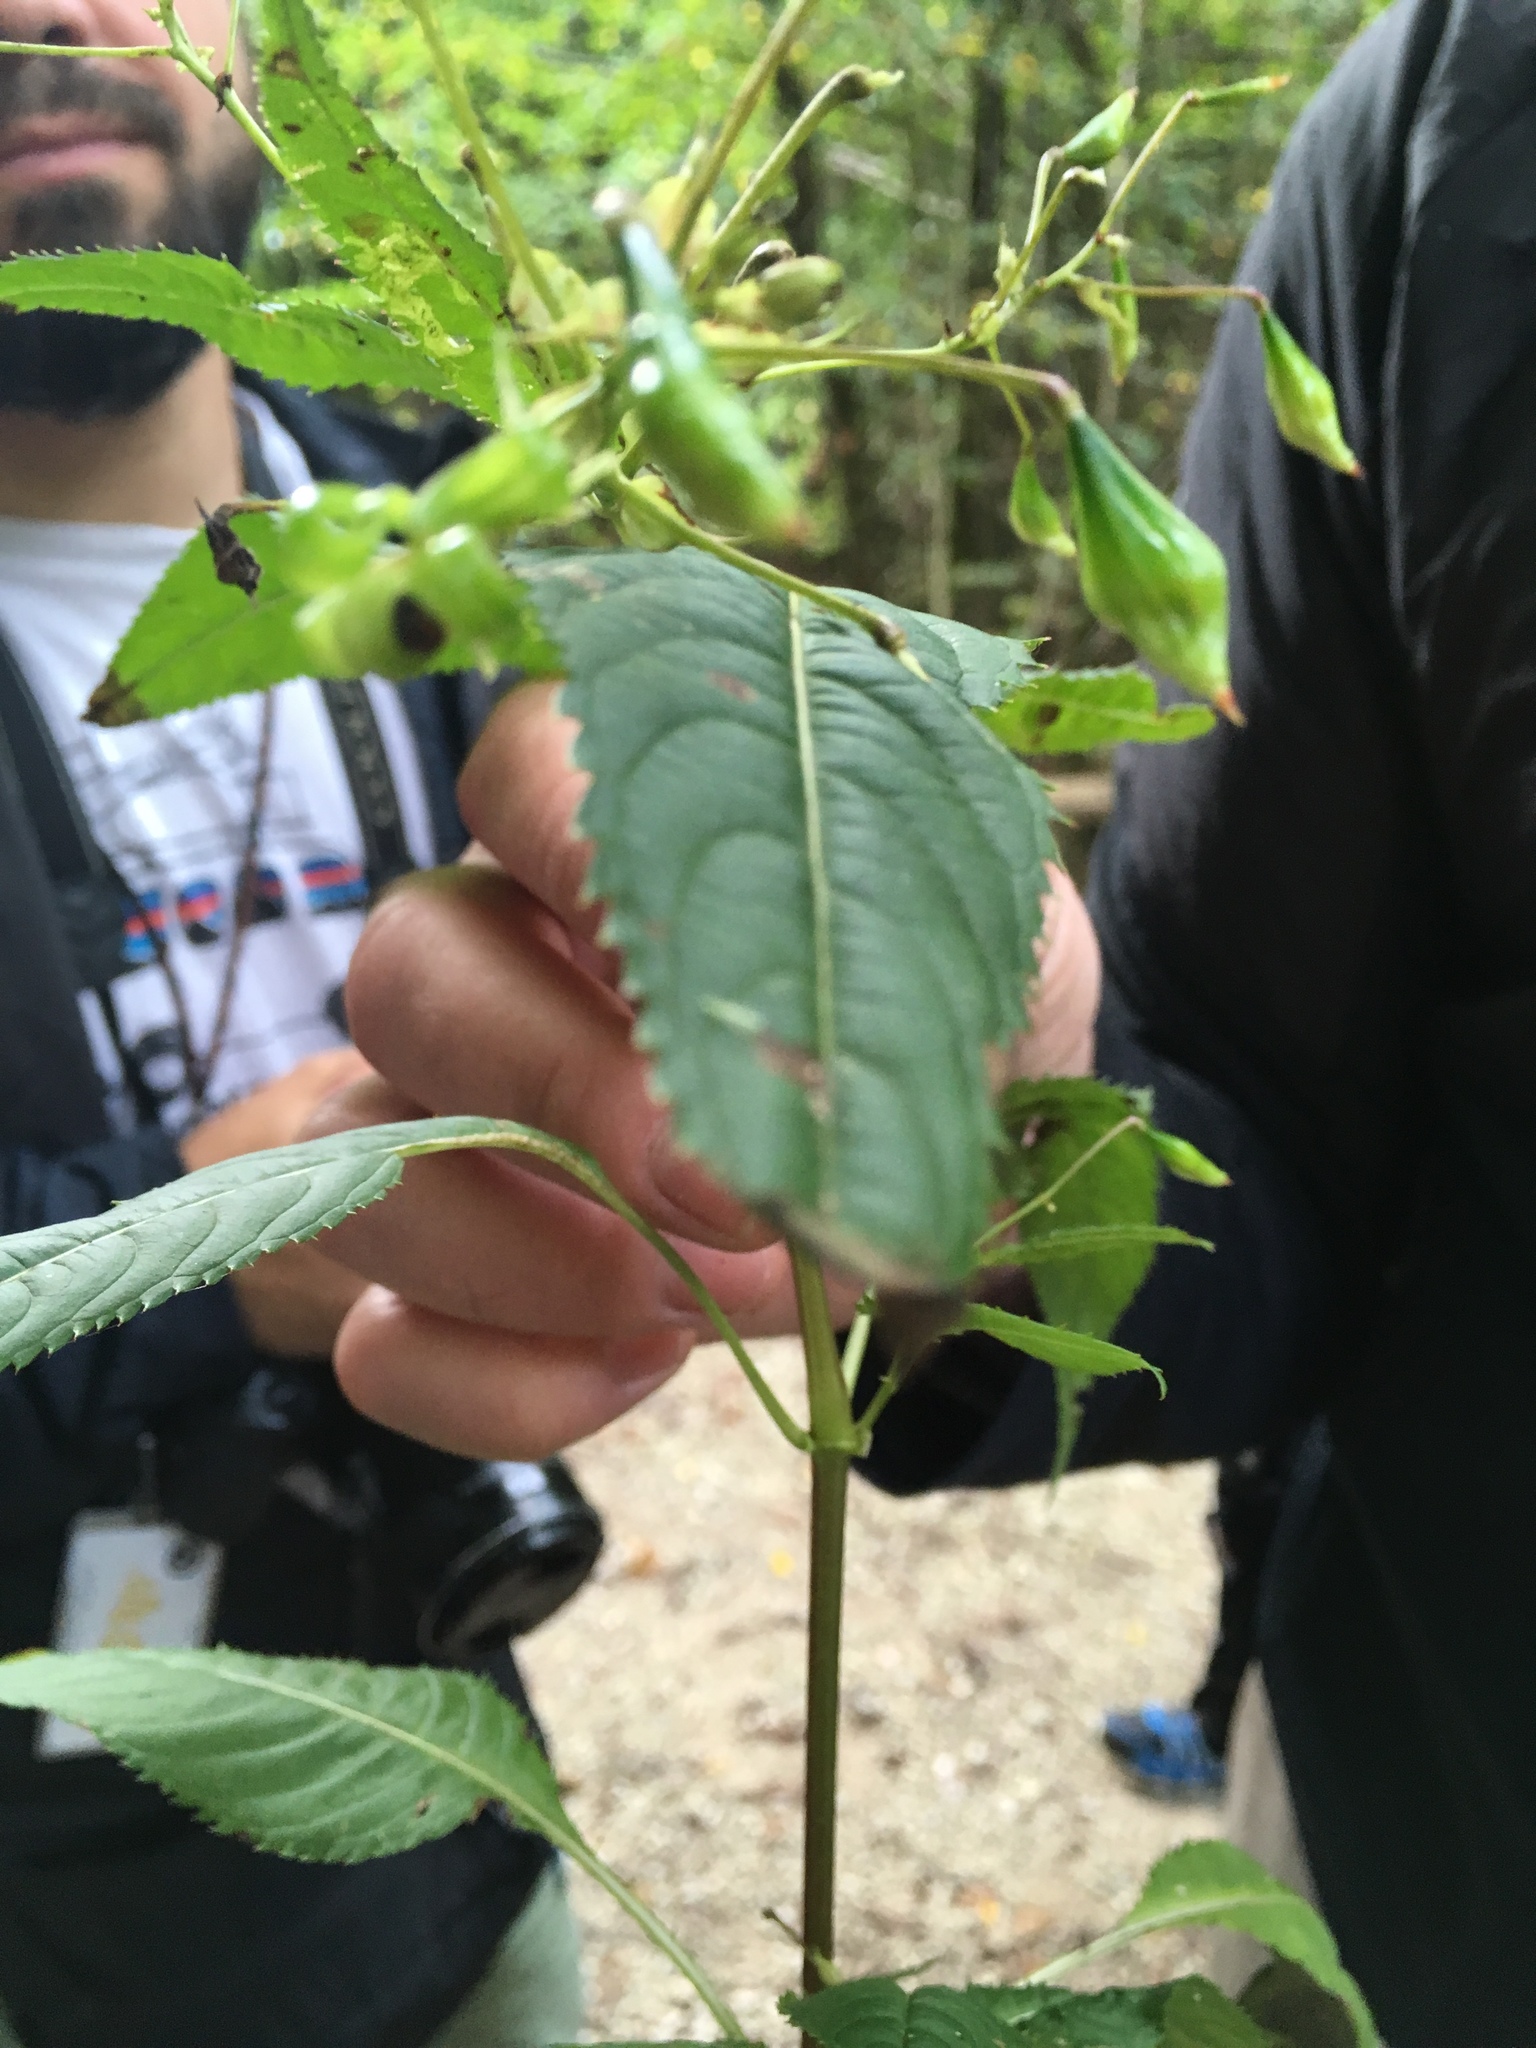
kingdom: Plantae
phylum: Tracheophyta
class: Magnoliopsida
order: Ericales
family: Balsaminaceae
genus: Impatiens
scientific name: Impatiens glandulifera
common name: Himalayan balsam
